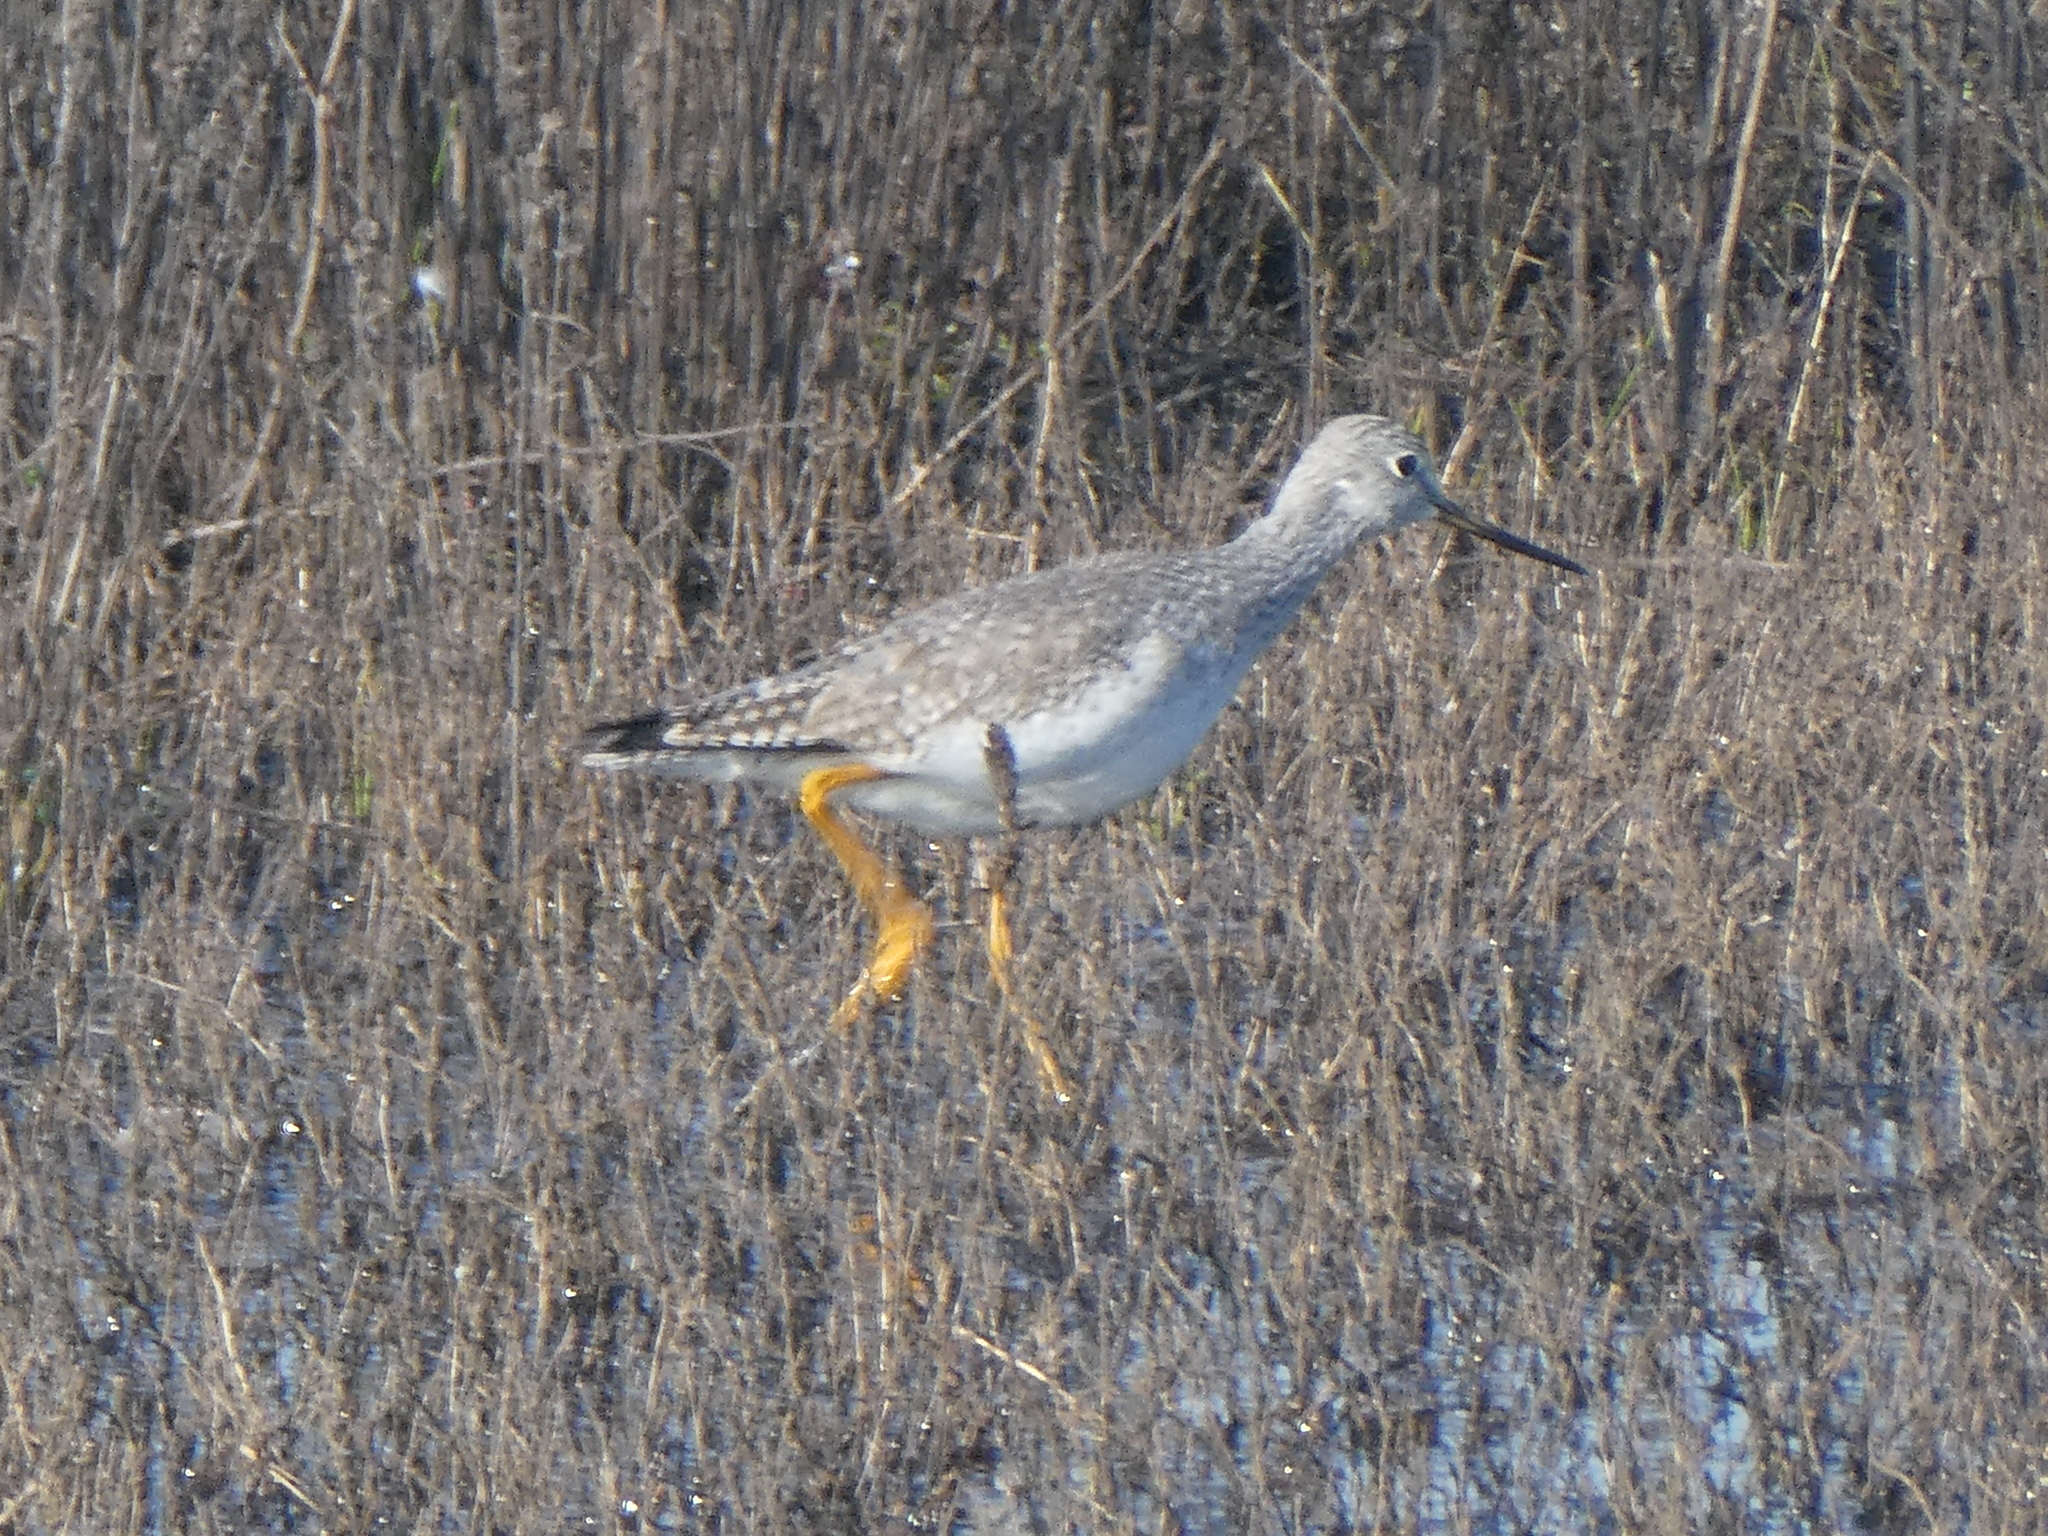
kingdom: Animalia
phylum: Chordata
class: Aves
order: Charadriiformes
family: Scolopacidae
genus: Tringa
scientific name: Tringa melanoleuca
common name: Greater yellowlegs
